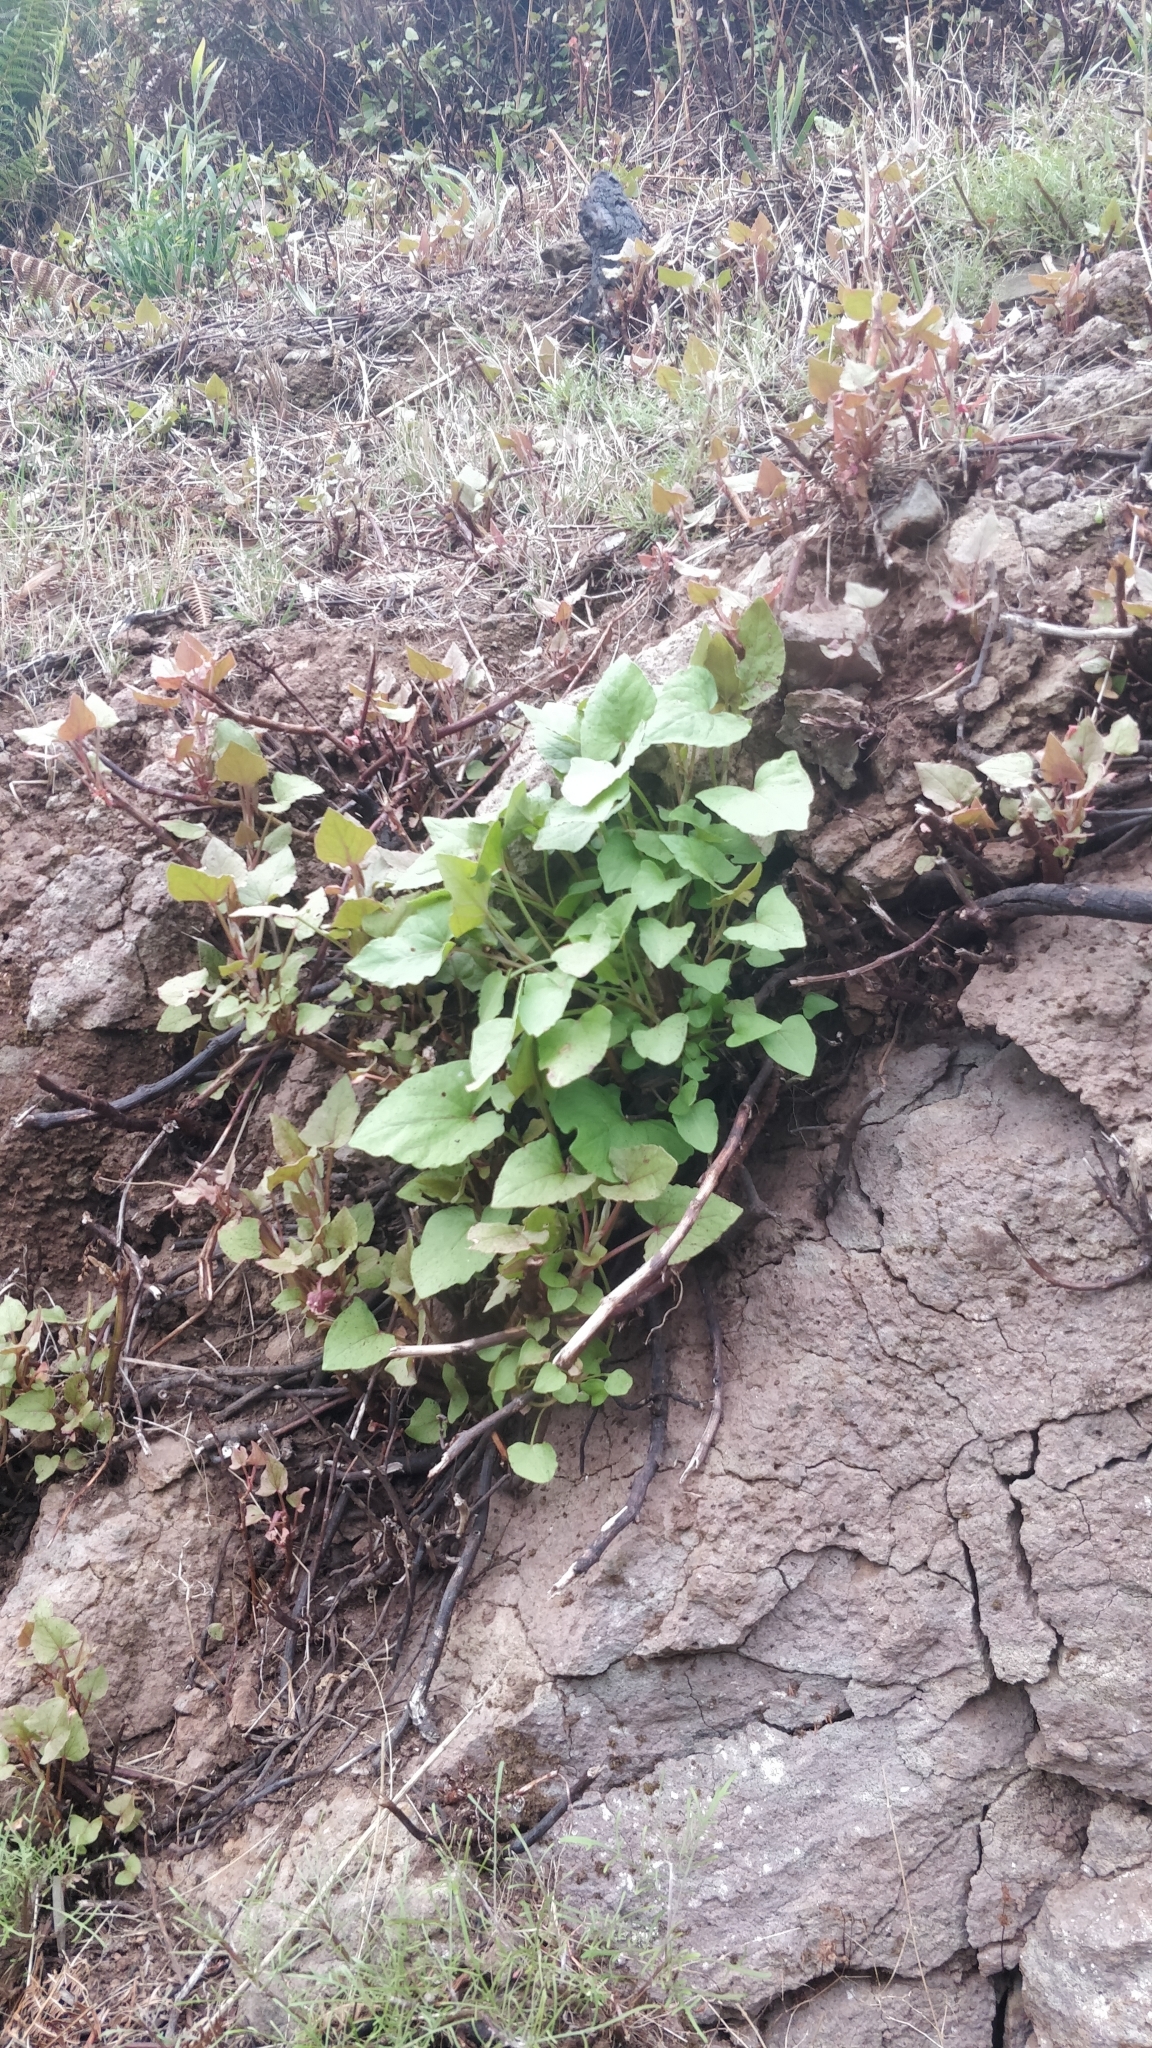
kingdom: Plantae
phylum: Tracheophyta
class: Magnoliopsida
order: Caryophyllales
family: Polygonaceae
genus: Rumex
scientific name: Rumex maderensis
